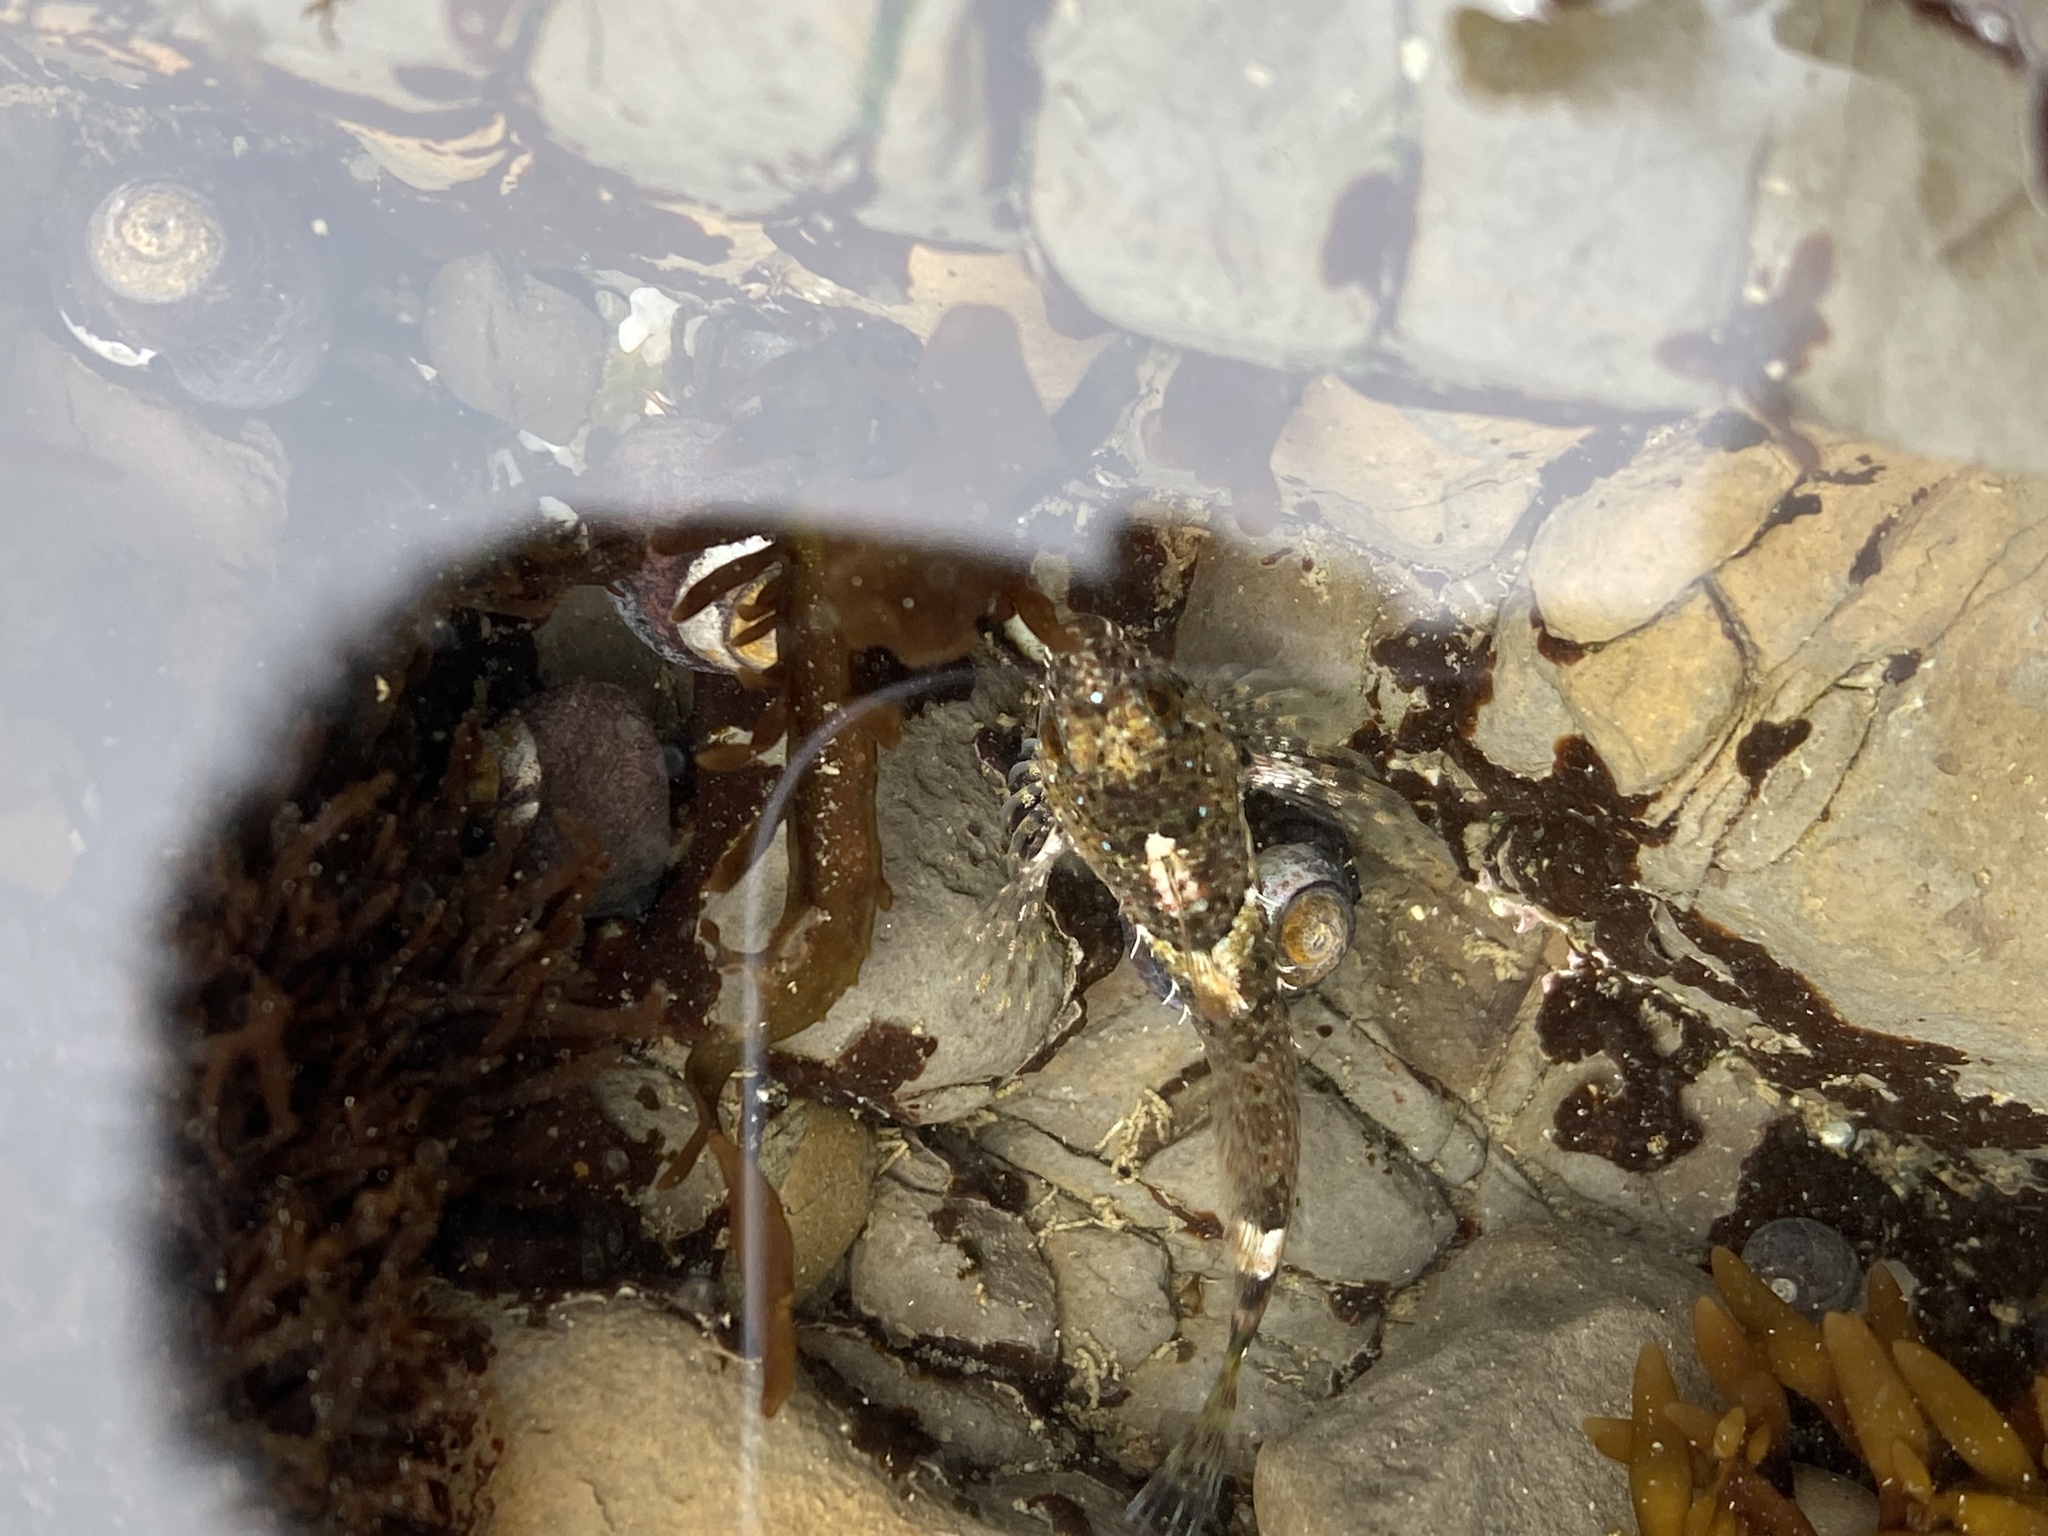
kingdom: Animalia
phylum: Chordata
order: Scorpaeniformes
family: Cottidae
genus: Clinocottus
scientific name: Clinocottus analis
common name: Woolly sculpin
